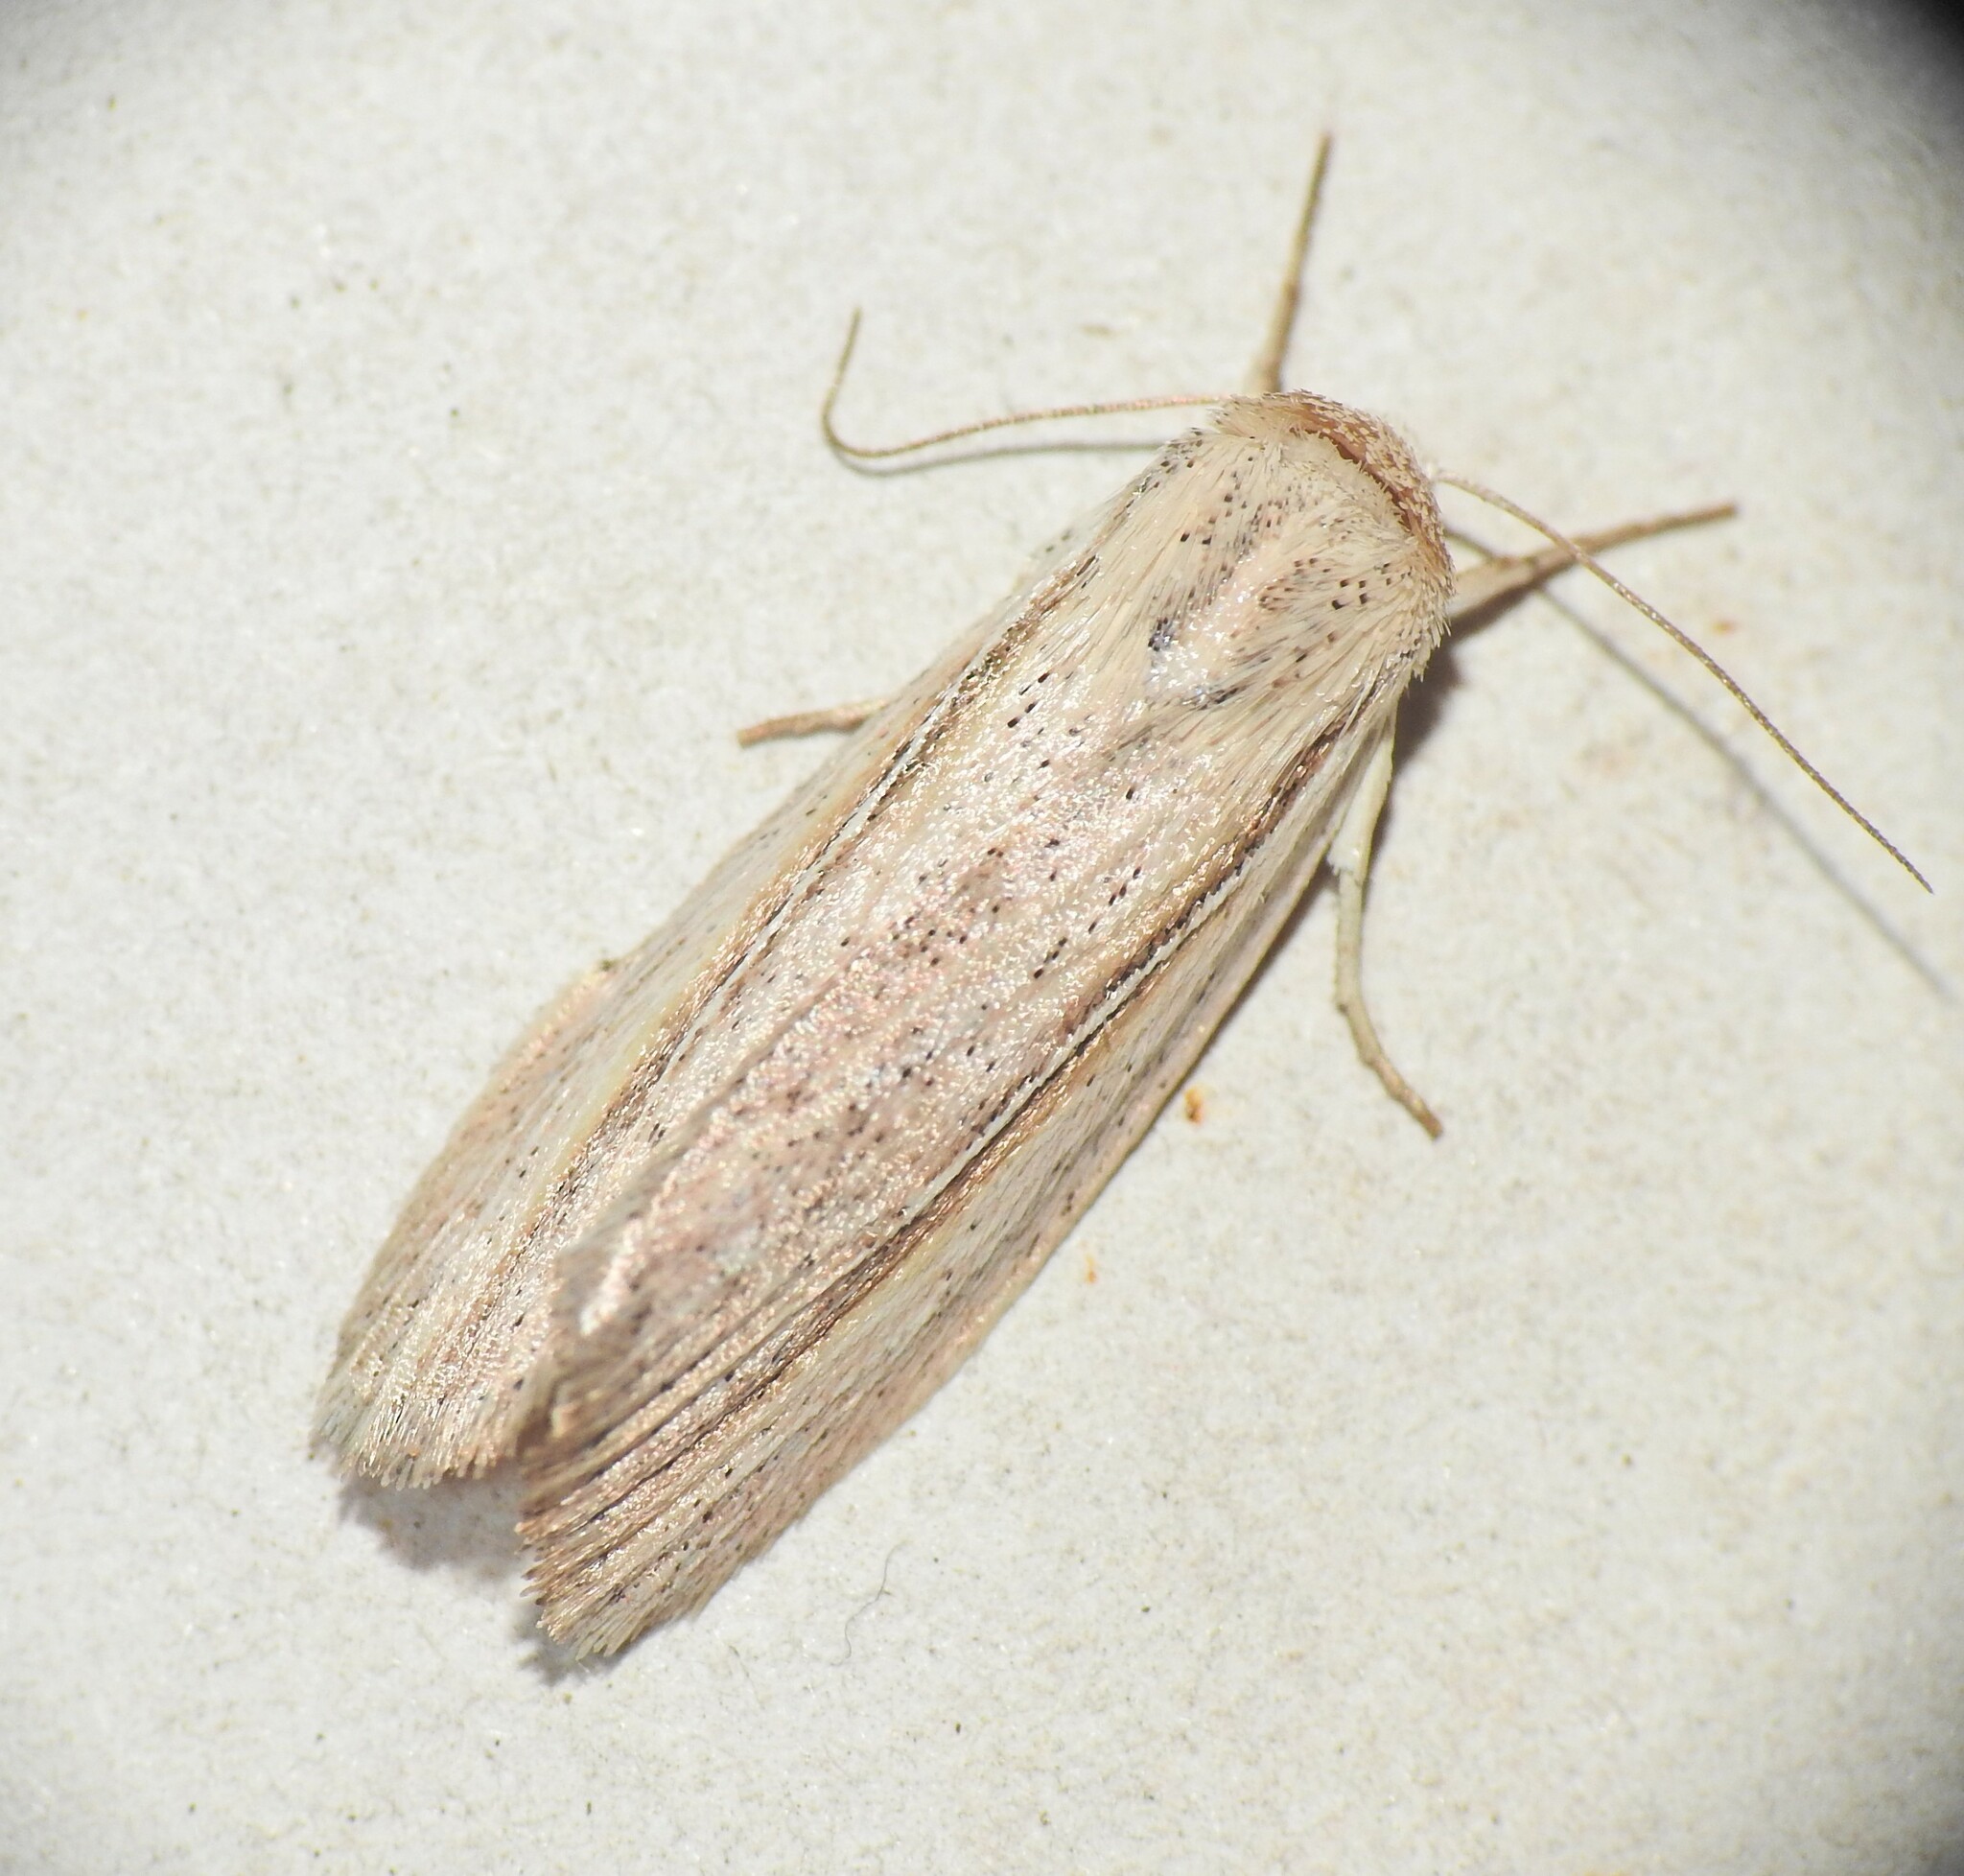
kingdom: Animalia
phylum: Arthropoda
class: Insecta
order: Lepidoptera
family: Noctuidae
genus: Eurypsyche
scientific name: Eurypsyche lewinii
